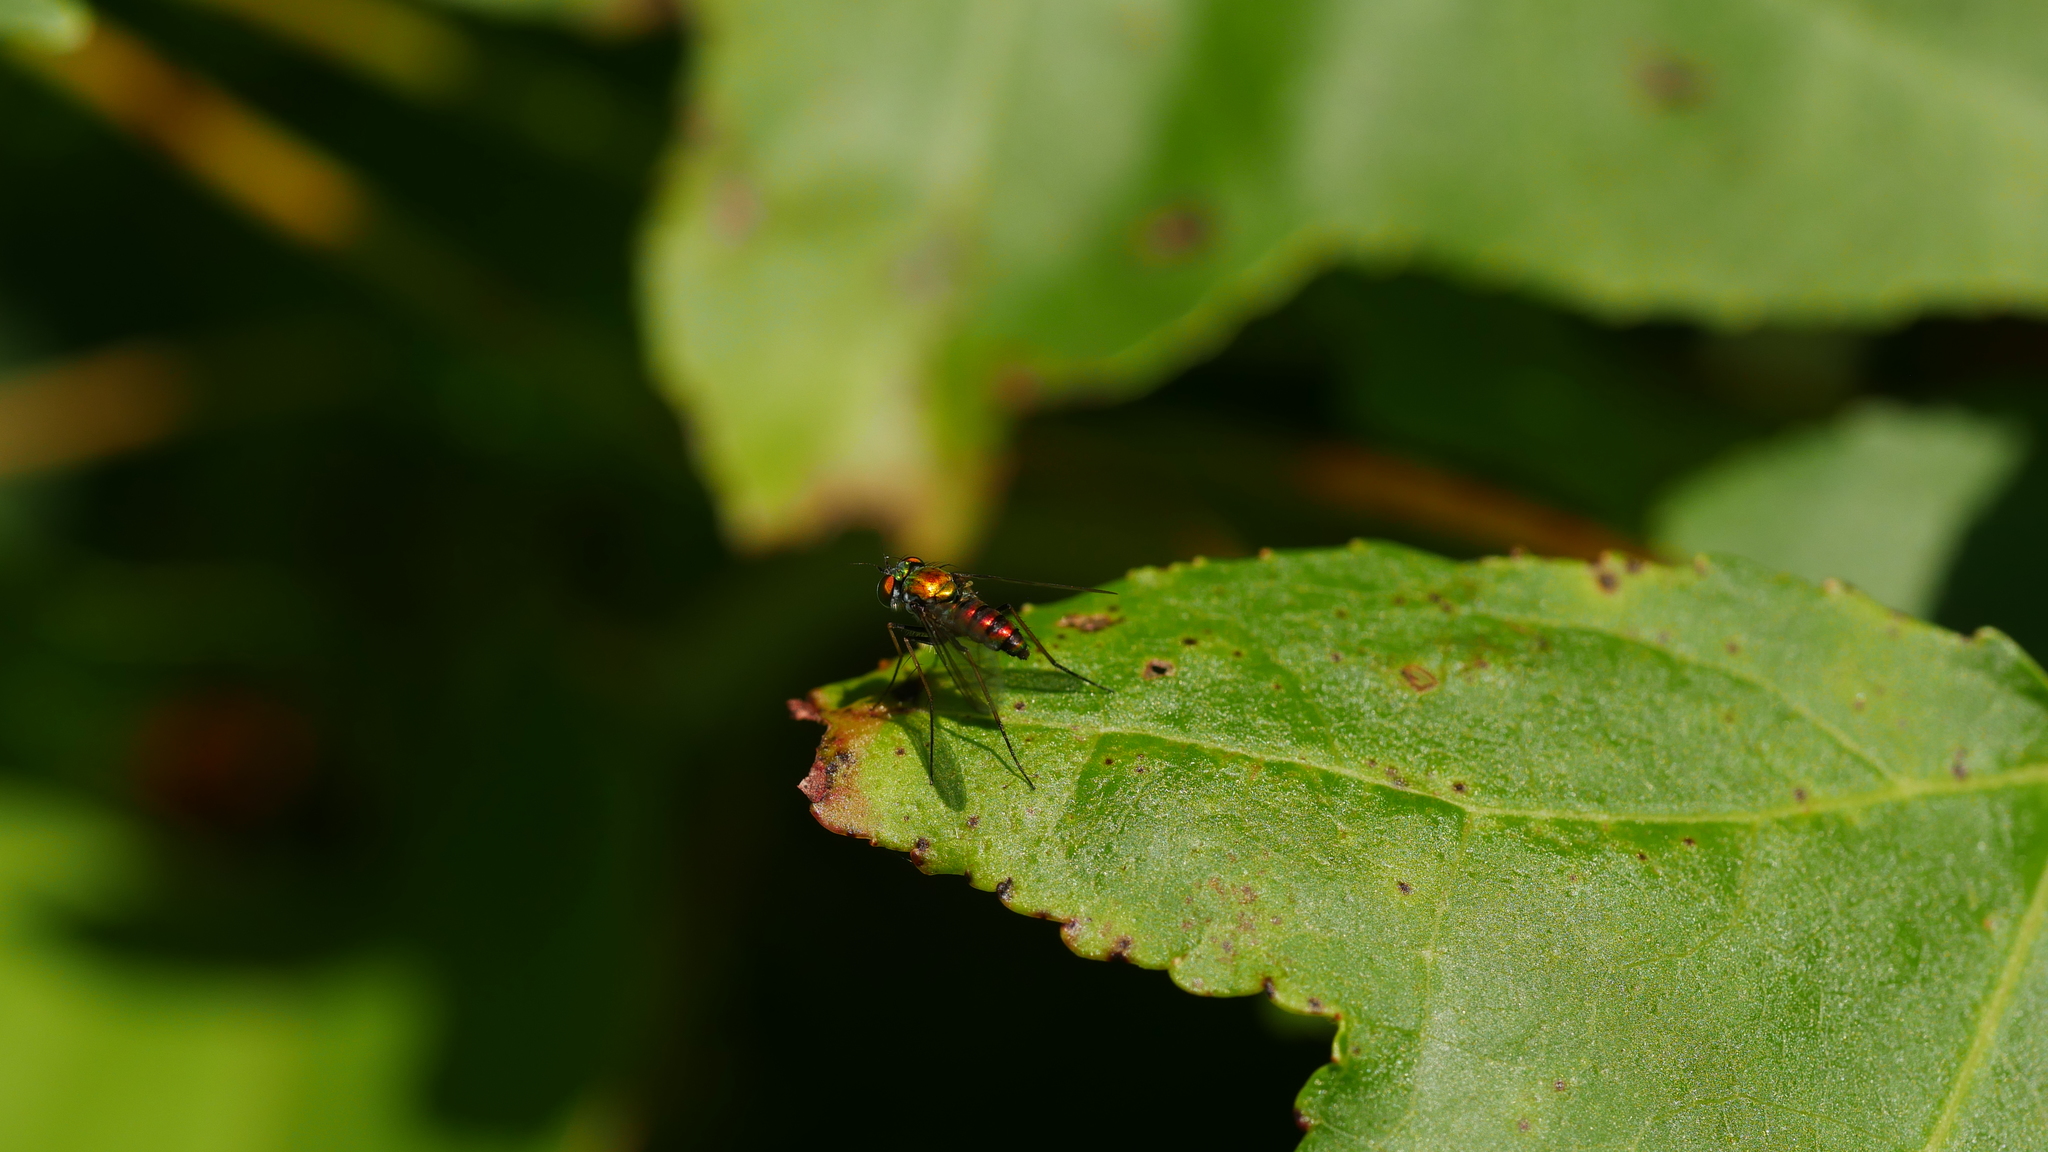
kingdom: Animalia
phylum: Arthropoda
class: Insecta
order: Diptera
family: Dolichopodidae
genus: Condylostylus
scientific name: Condylostylus
